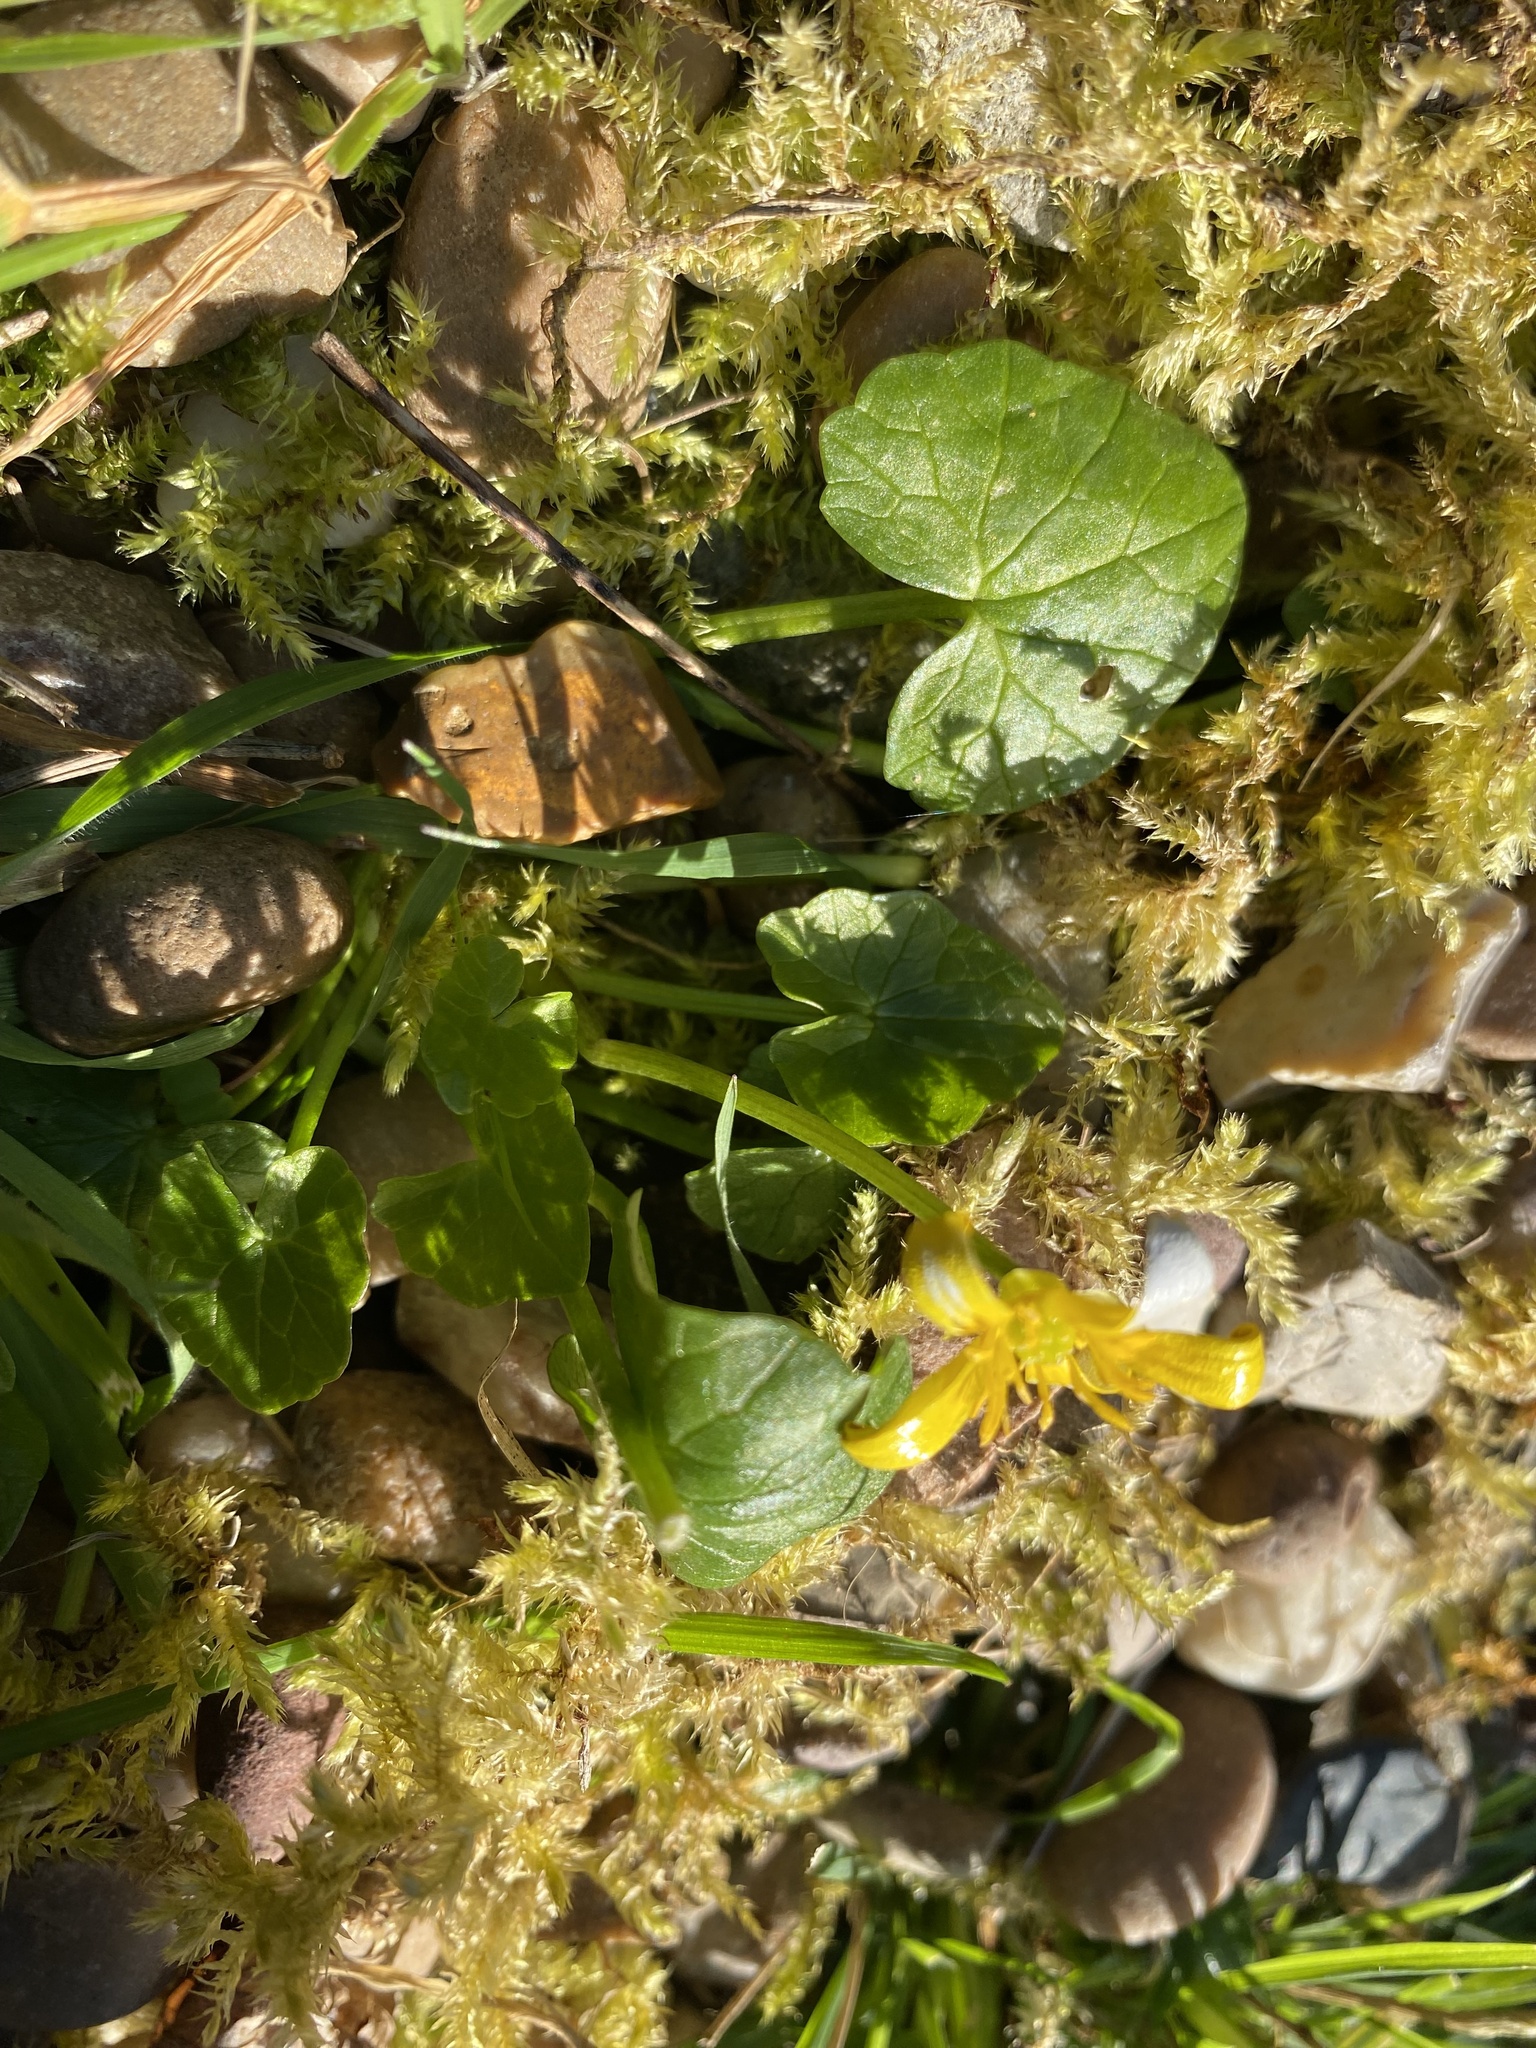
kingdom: Plantae
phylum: Tracheophyta
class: Magnoliopsida
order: Ranunculales
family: Ranunculaceae
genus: Ficaria
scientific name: Ficaria verna
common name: Lesser celandine
